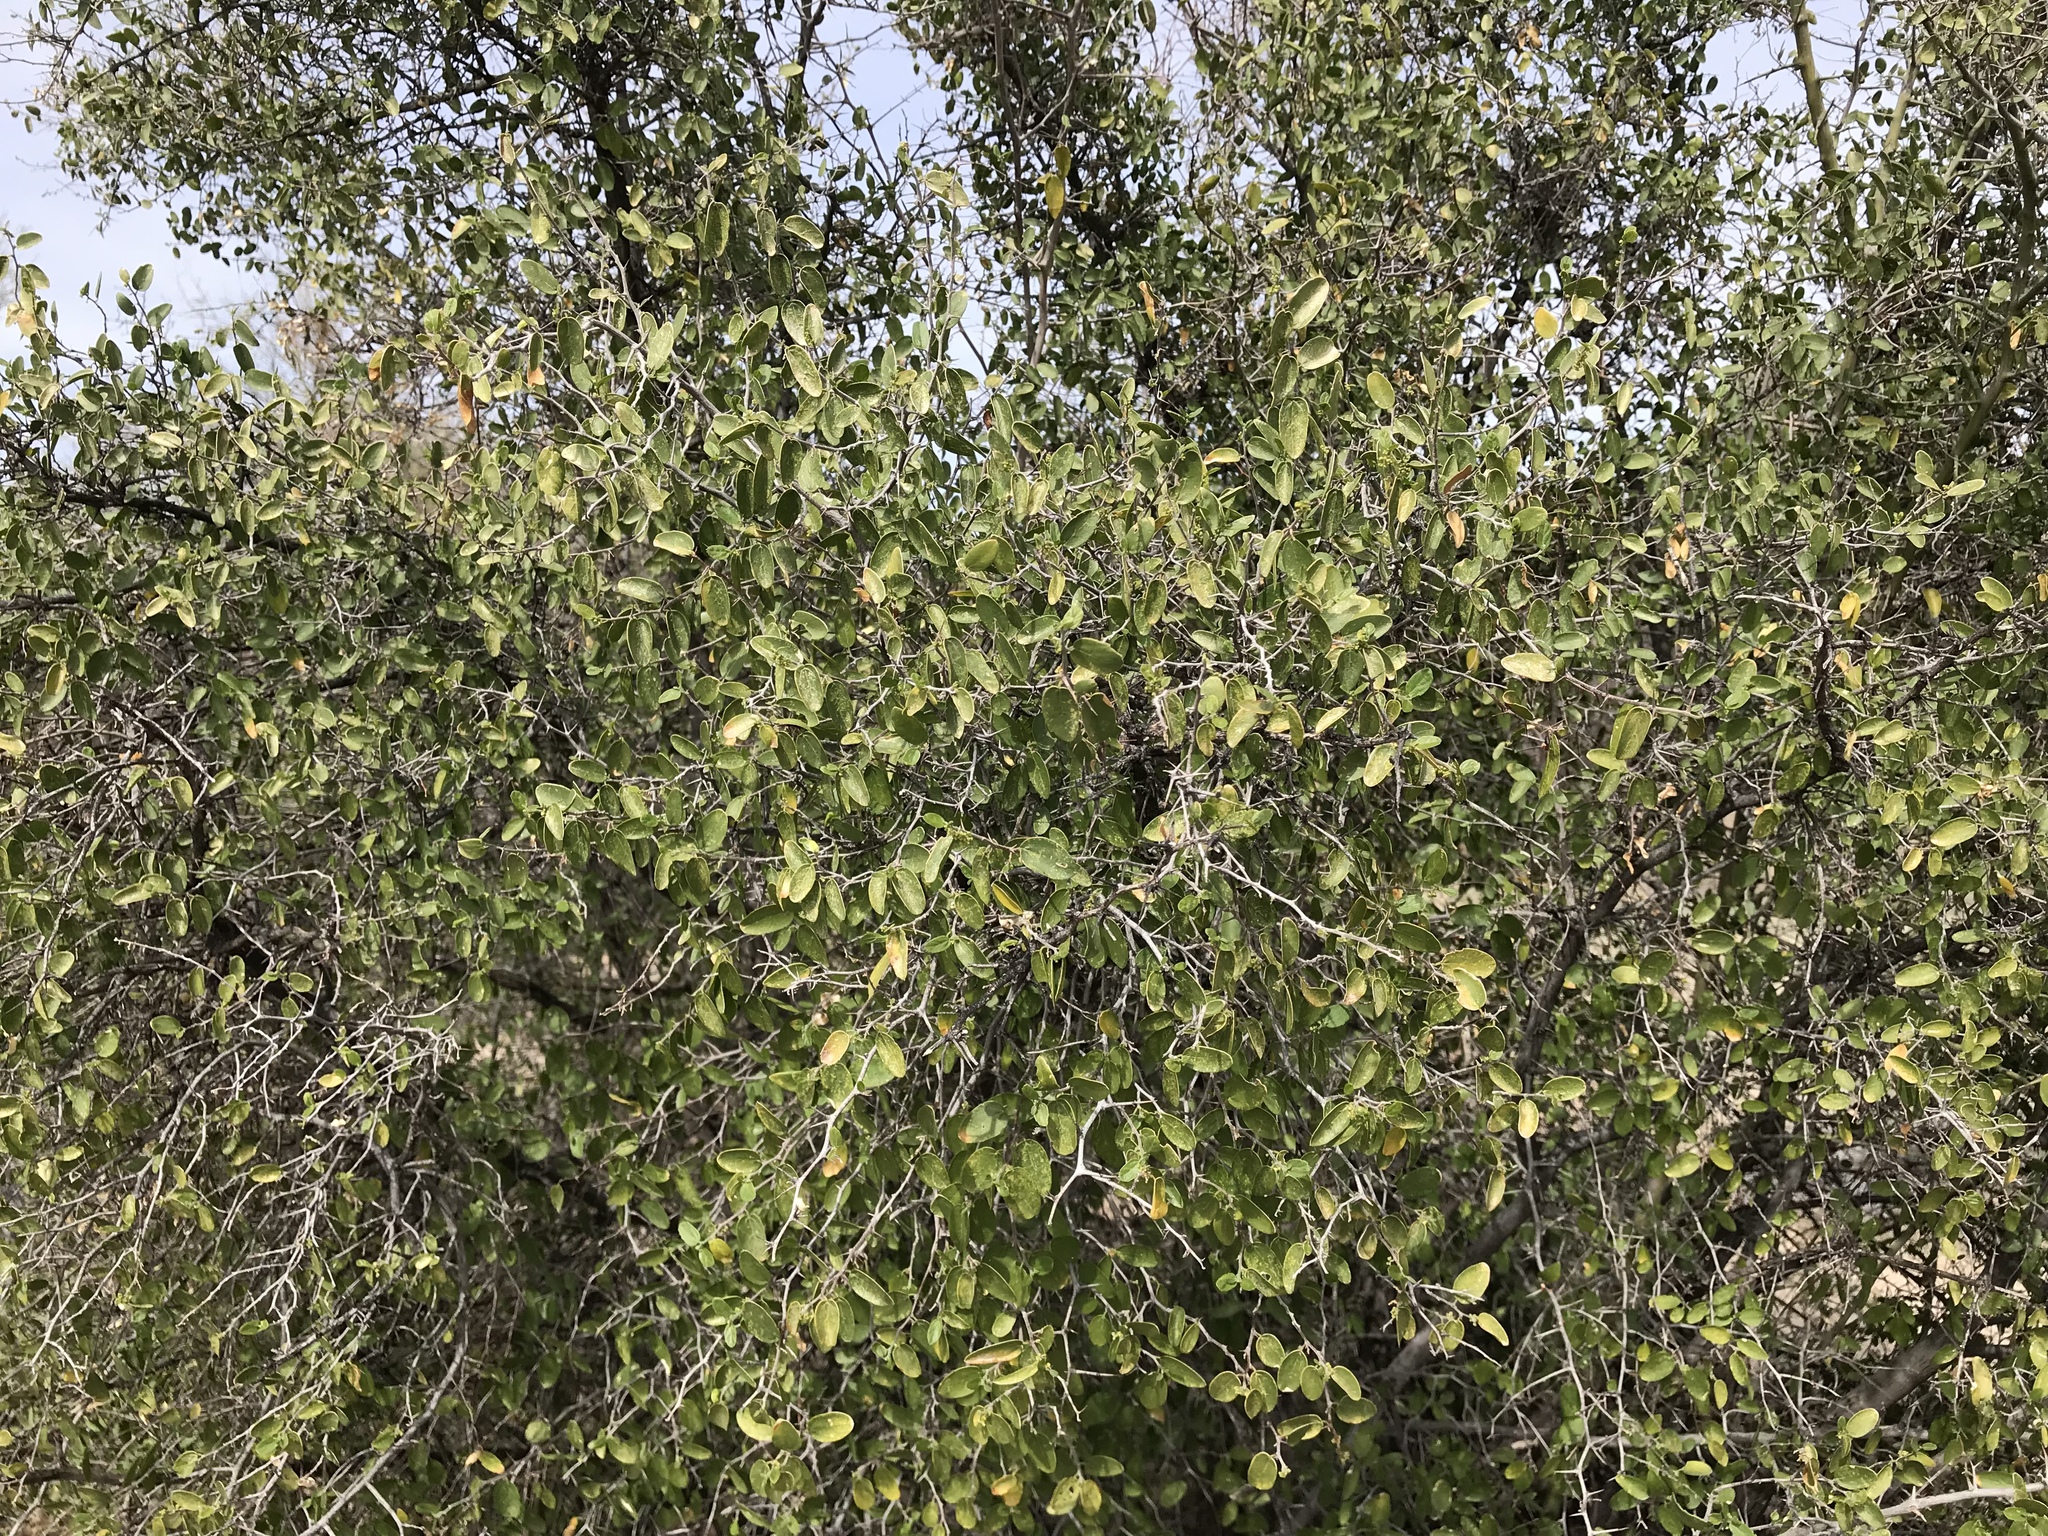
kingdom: Plantae
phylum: Tracheophyta
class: Magnoliopsida
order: Rosales
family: Cannabaceae
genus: Celtis
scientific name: Celtis pallida
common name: Desert hackberry
